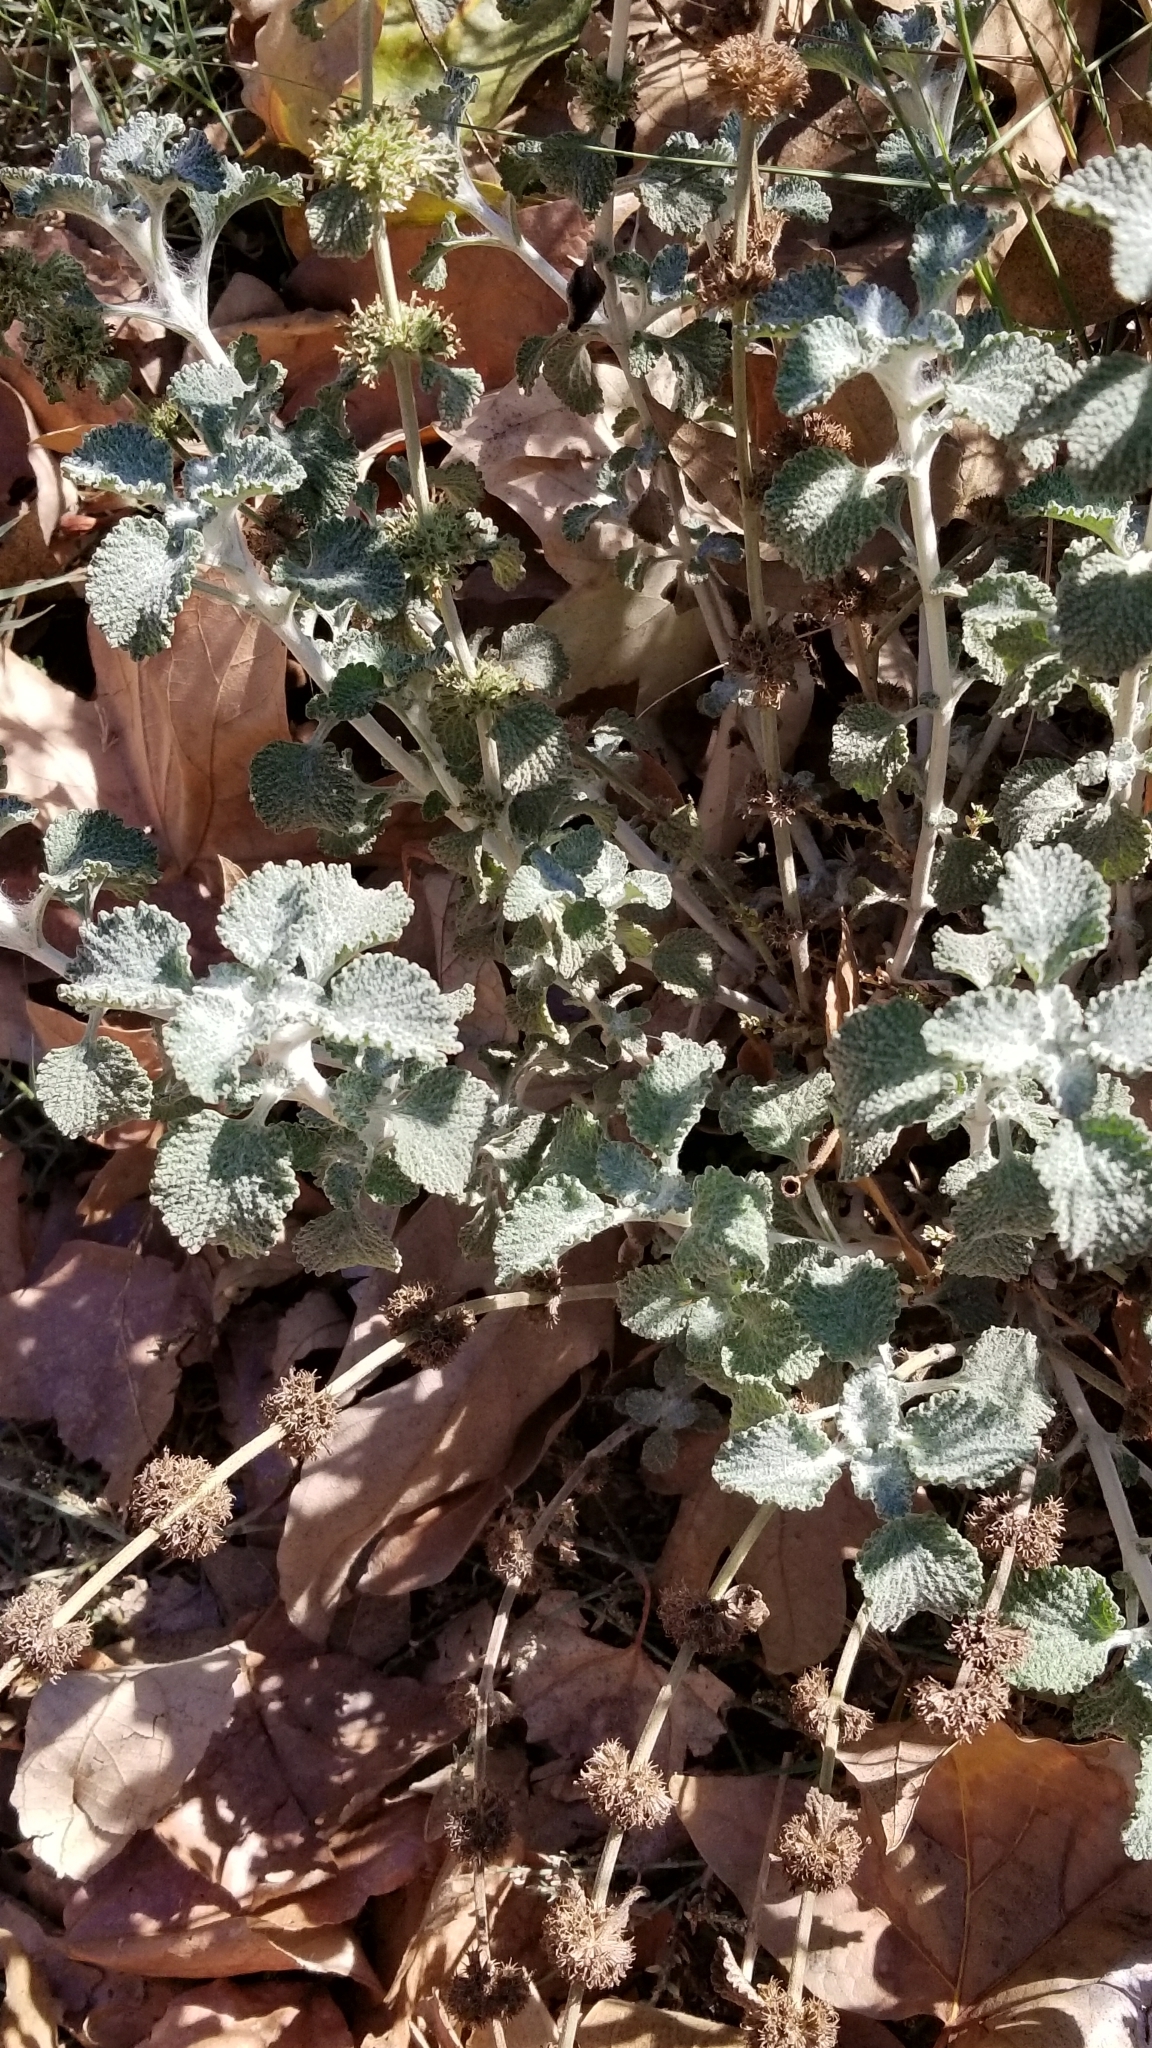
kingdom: Plantae
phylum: Tracheophyta
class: Magnoliopsida
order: Lamiales
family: Lamiaceae
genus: Marrubium
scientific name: Marrubium vulgare
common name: Horehound
